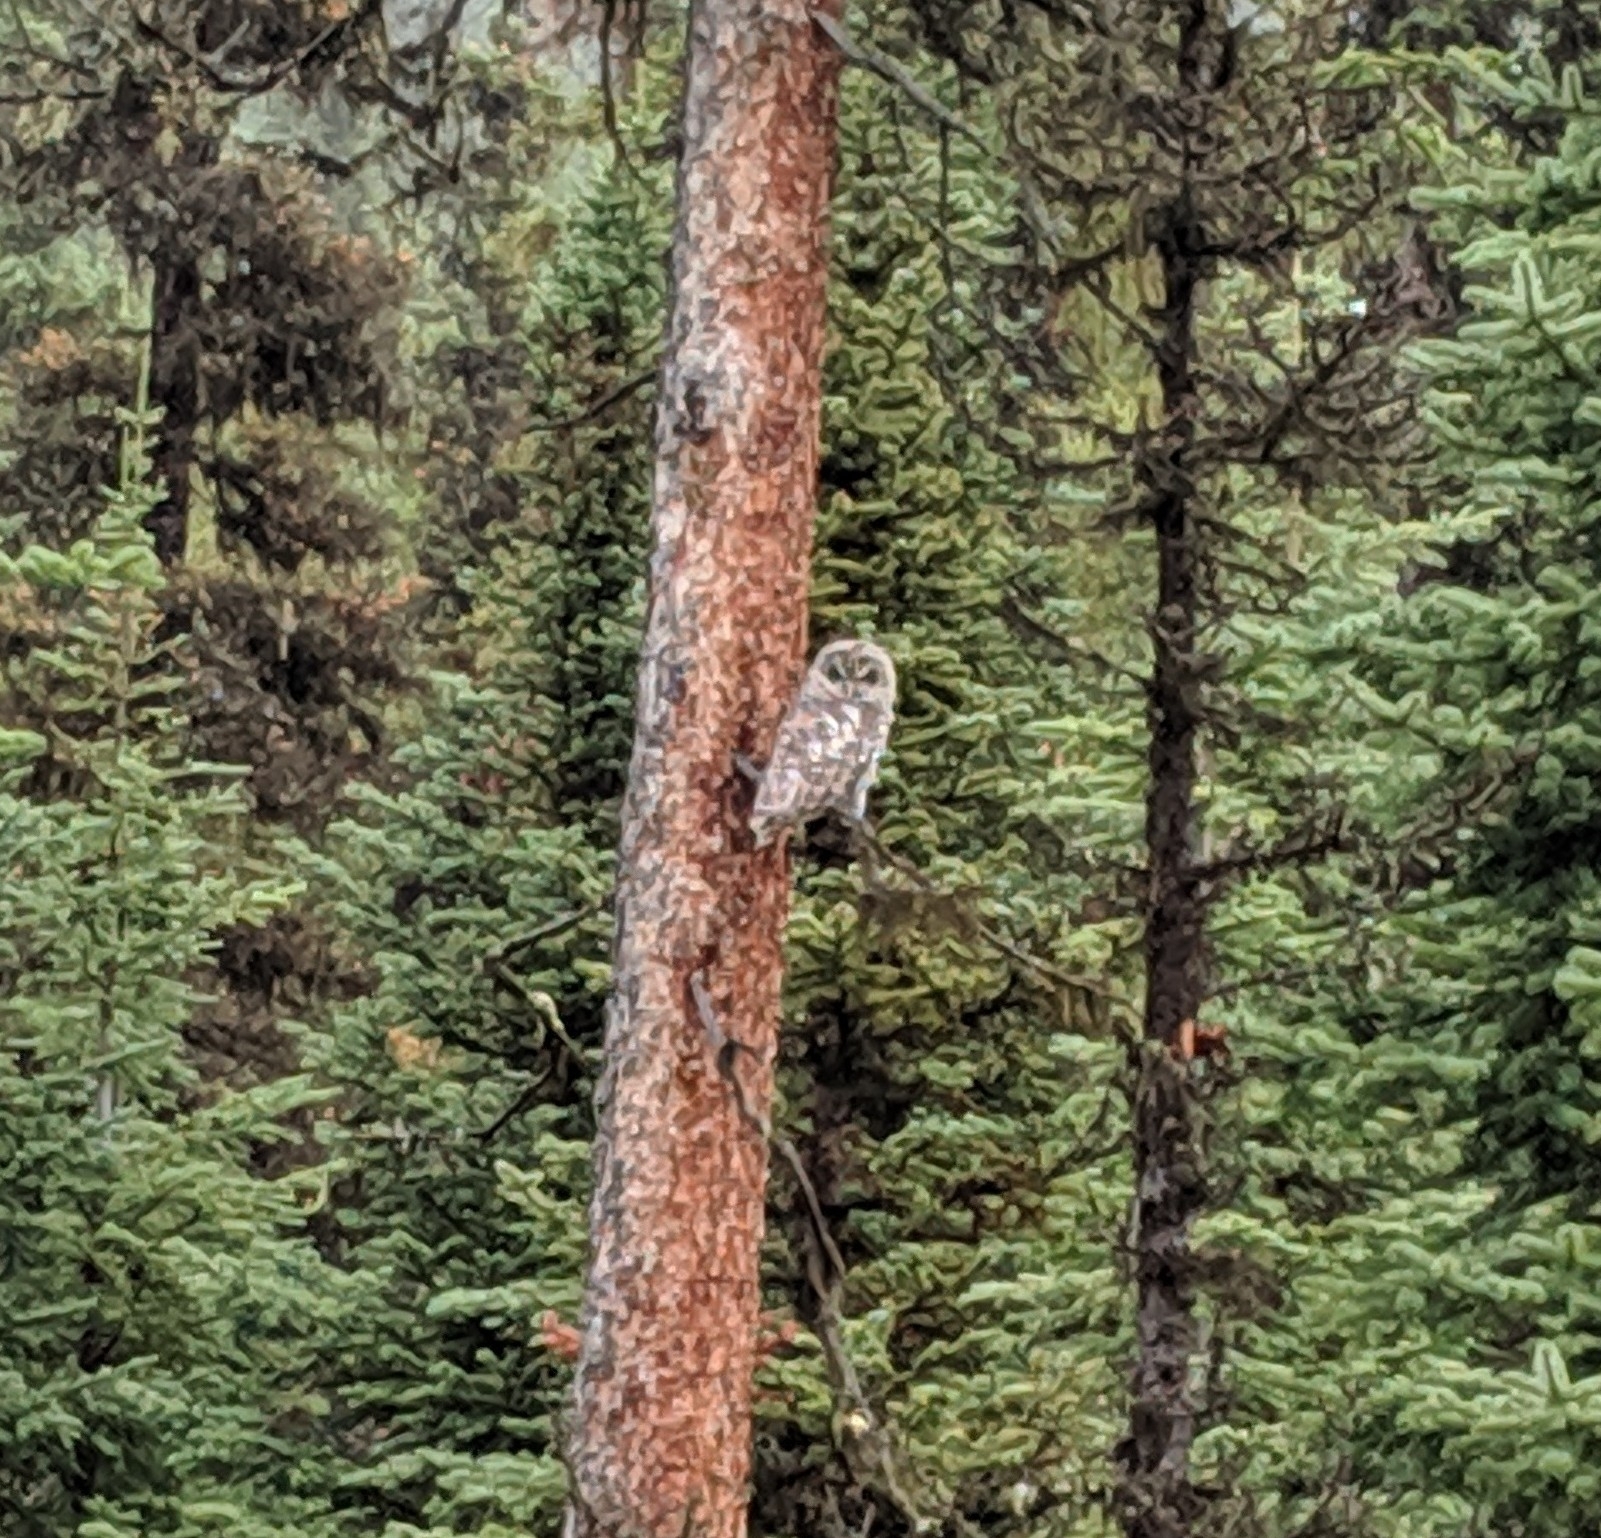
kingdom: Animalia
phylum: Chordata
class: Aves
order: Strigiformes
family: Strigidae
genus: Strix
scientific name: Strix varia
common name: Barred owl
